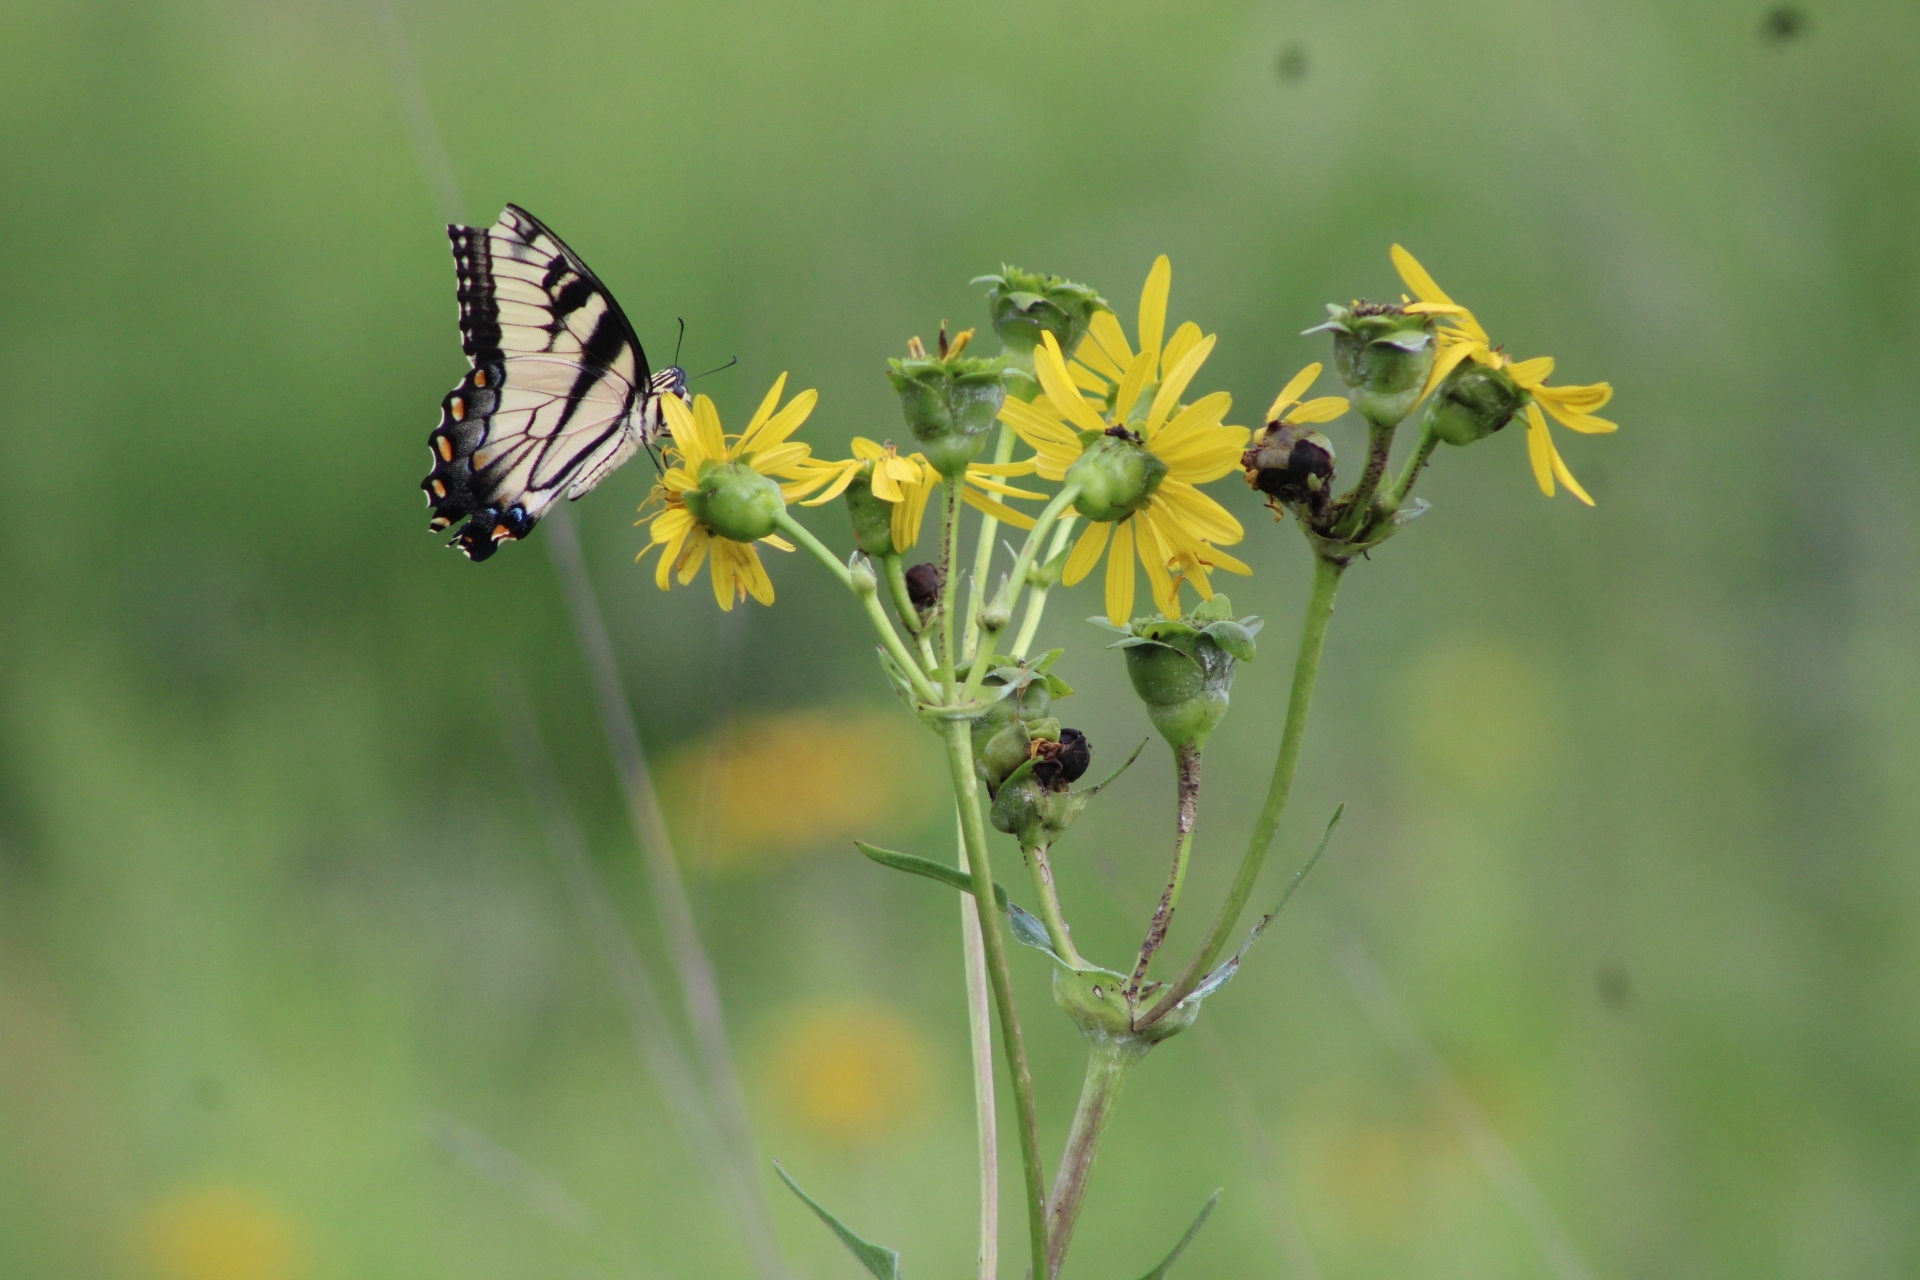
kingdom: Animalia
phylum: Arthropoda
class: Insecta
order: Lepidoptera
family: Papilionidae
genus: Papilio
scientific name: Papilio glaucus
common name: Tiger swallowtail
